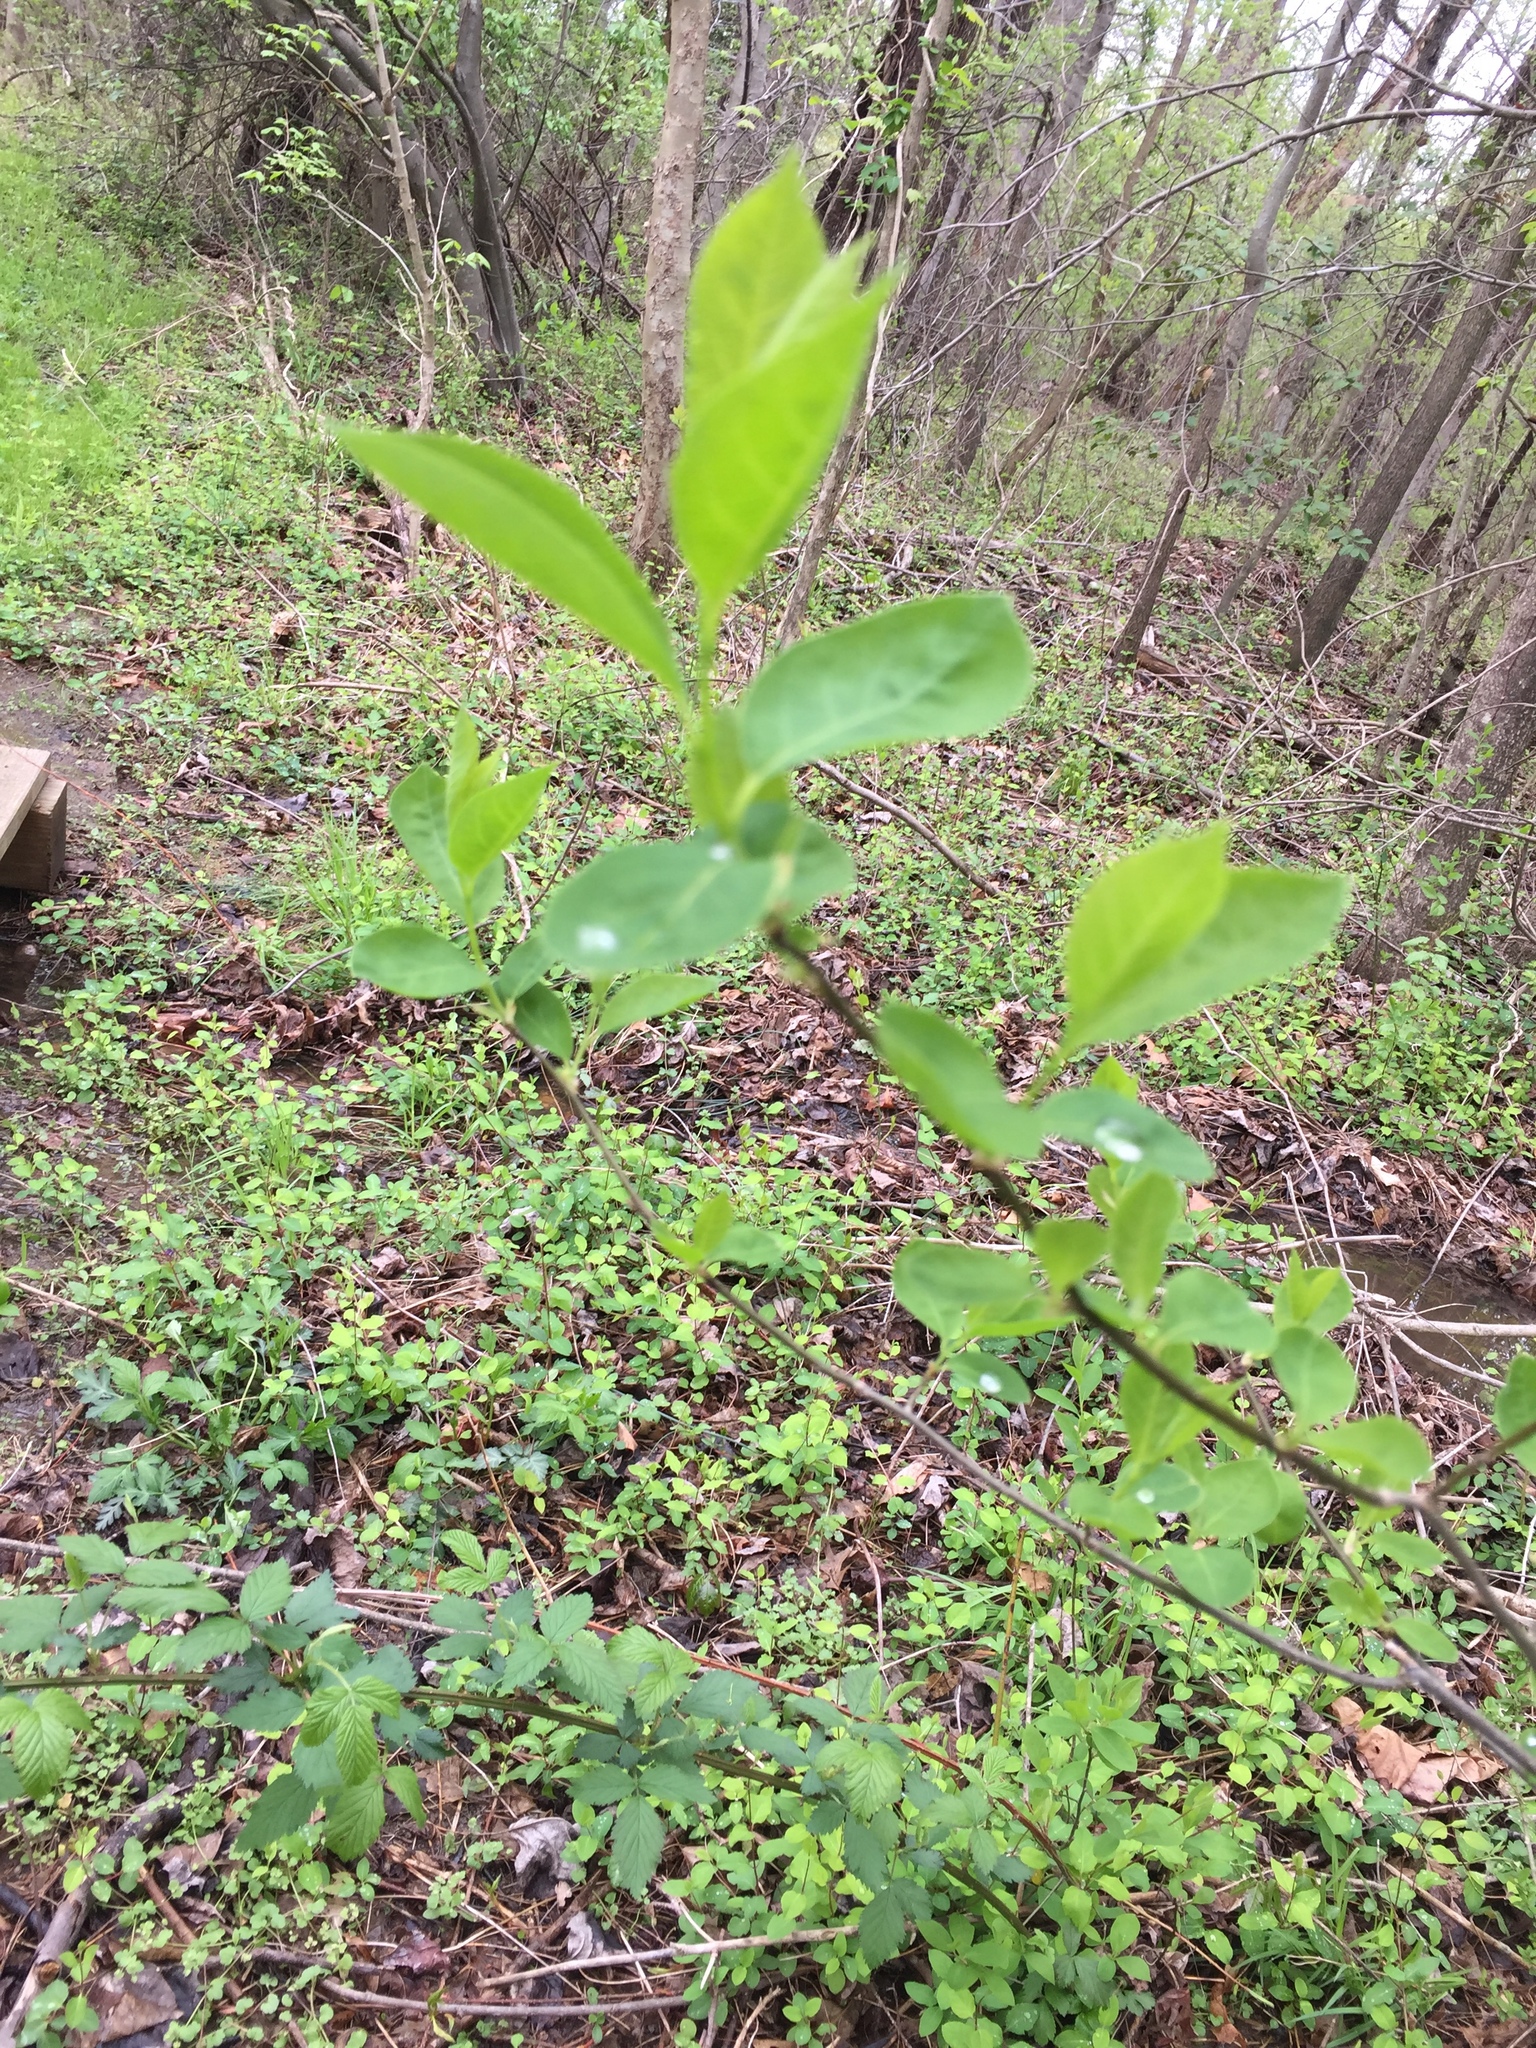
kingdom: Plantae
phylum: Tracheophyta
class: Magnoliopsida
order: Laurales
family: Lauraceae
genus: Lindera
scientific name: Lindera benzoin
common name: Spicebush
